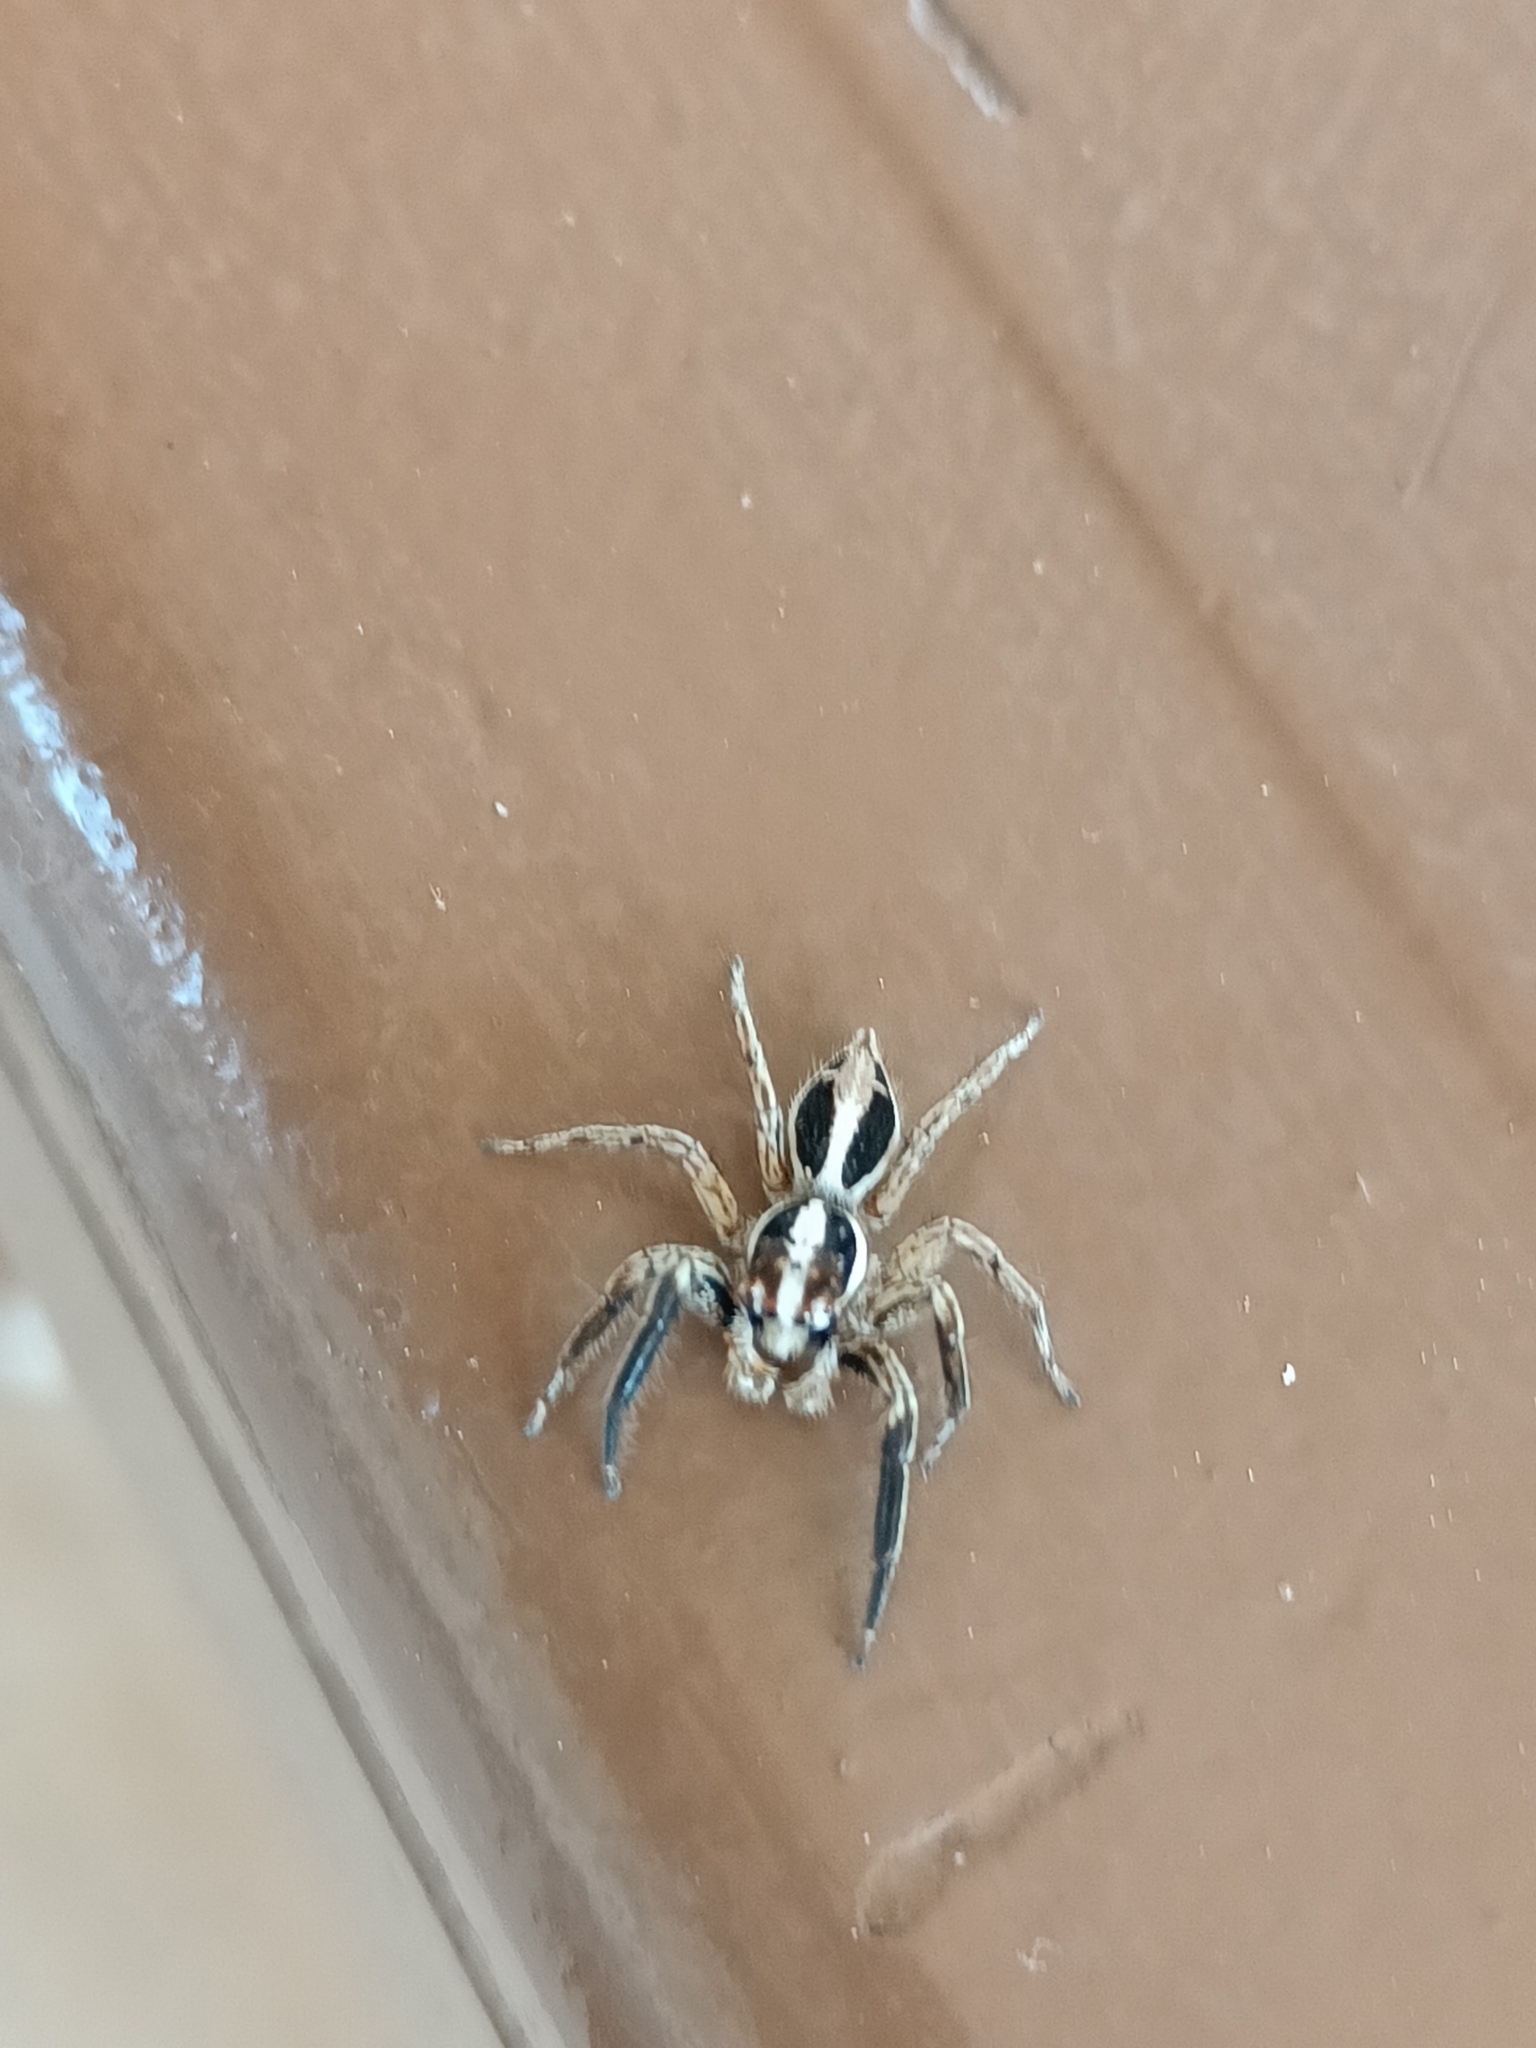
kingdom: Animalia
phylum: Arthropoda
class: Arachnida
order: Araneae
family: Salticidae
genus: Plexippus
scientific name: Plexippus paykulli
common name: Pantropical jumper
